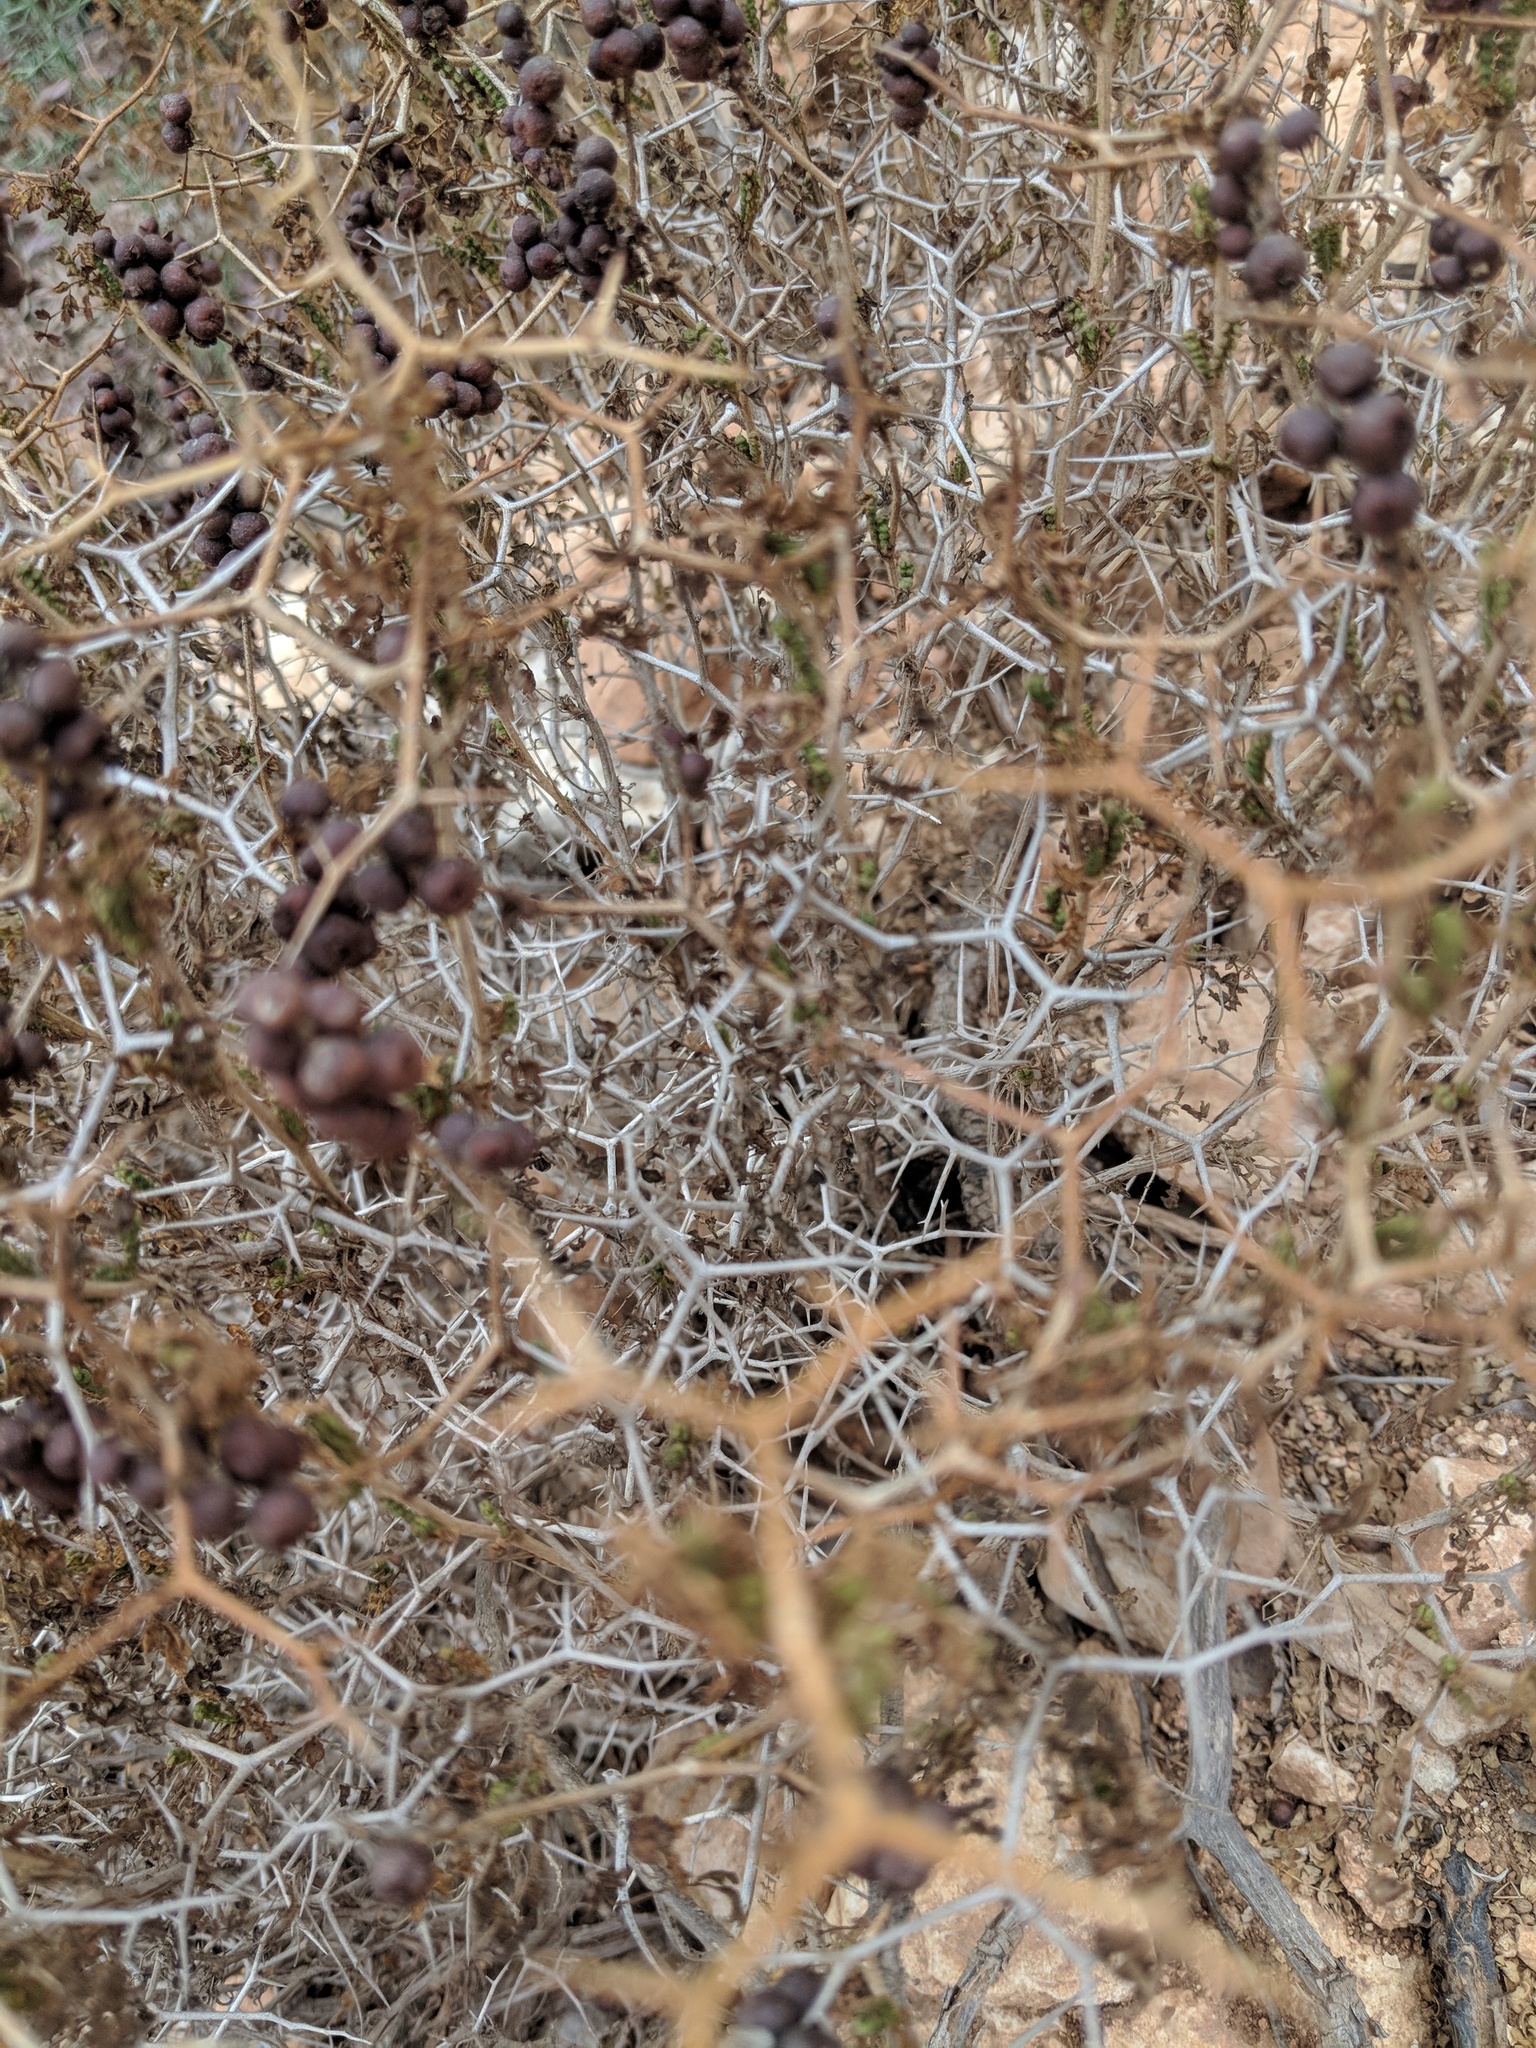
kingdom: Plantae
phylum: Tracheophyta
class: Magnoliopsida
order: Rosales
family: Rosaceae
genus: Sarcopoterium
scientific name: Sarcopoterium spinosum
